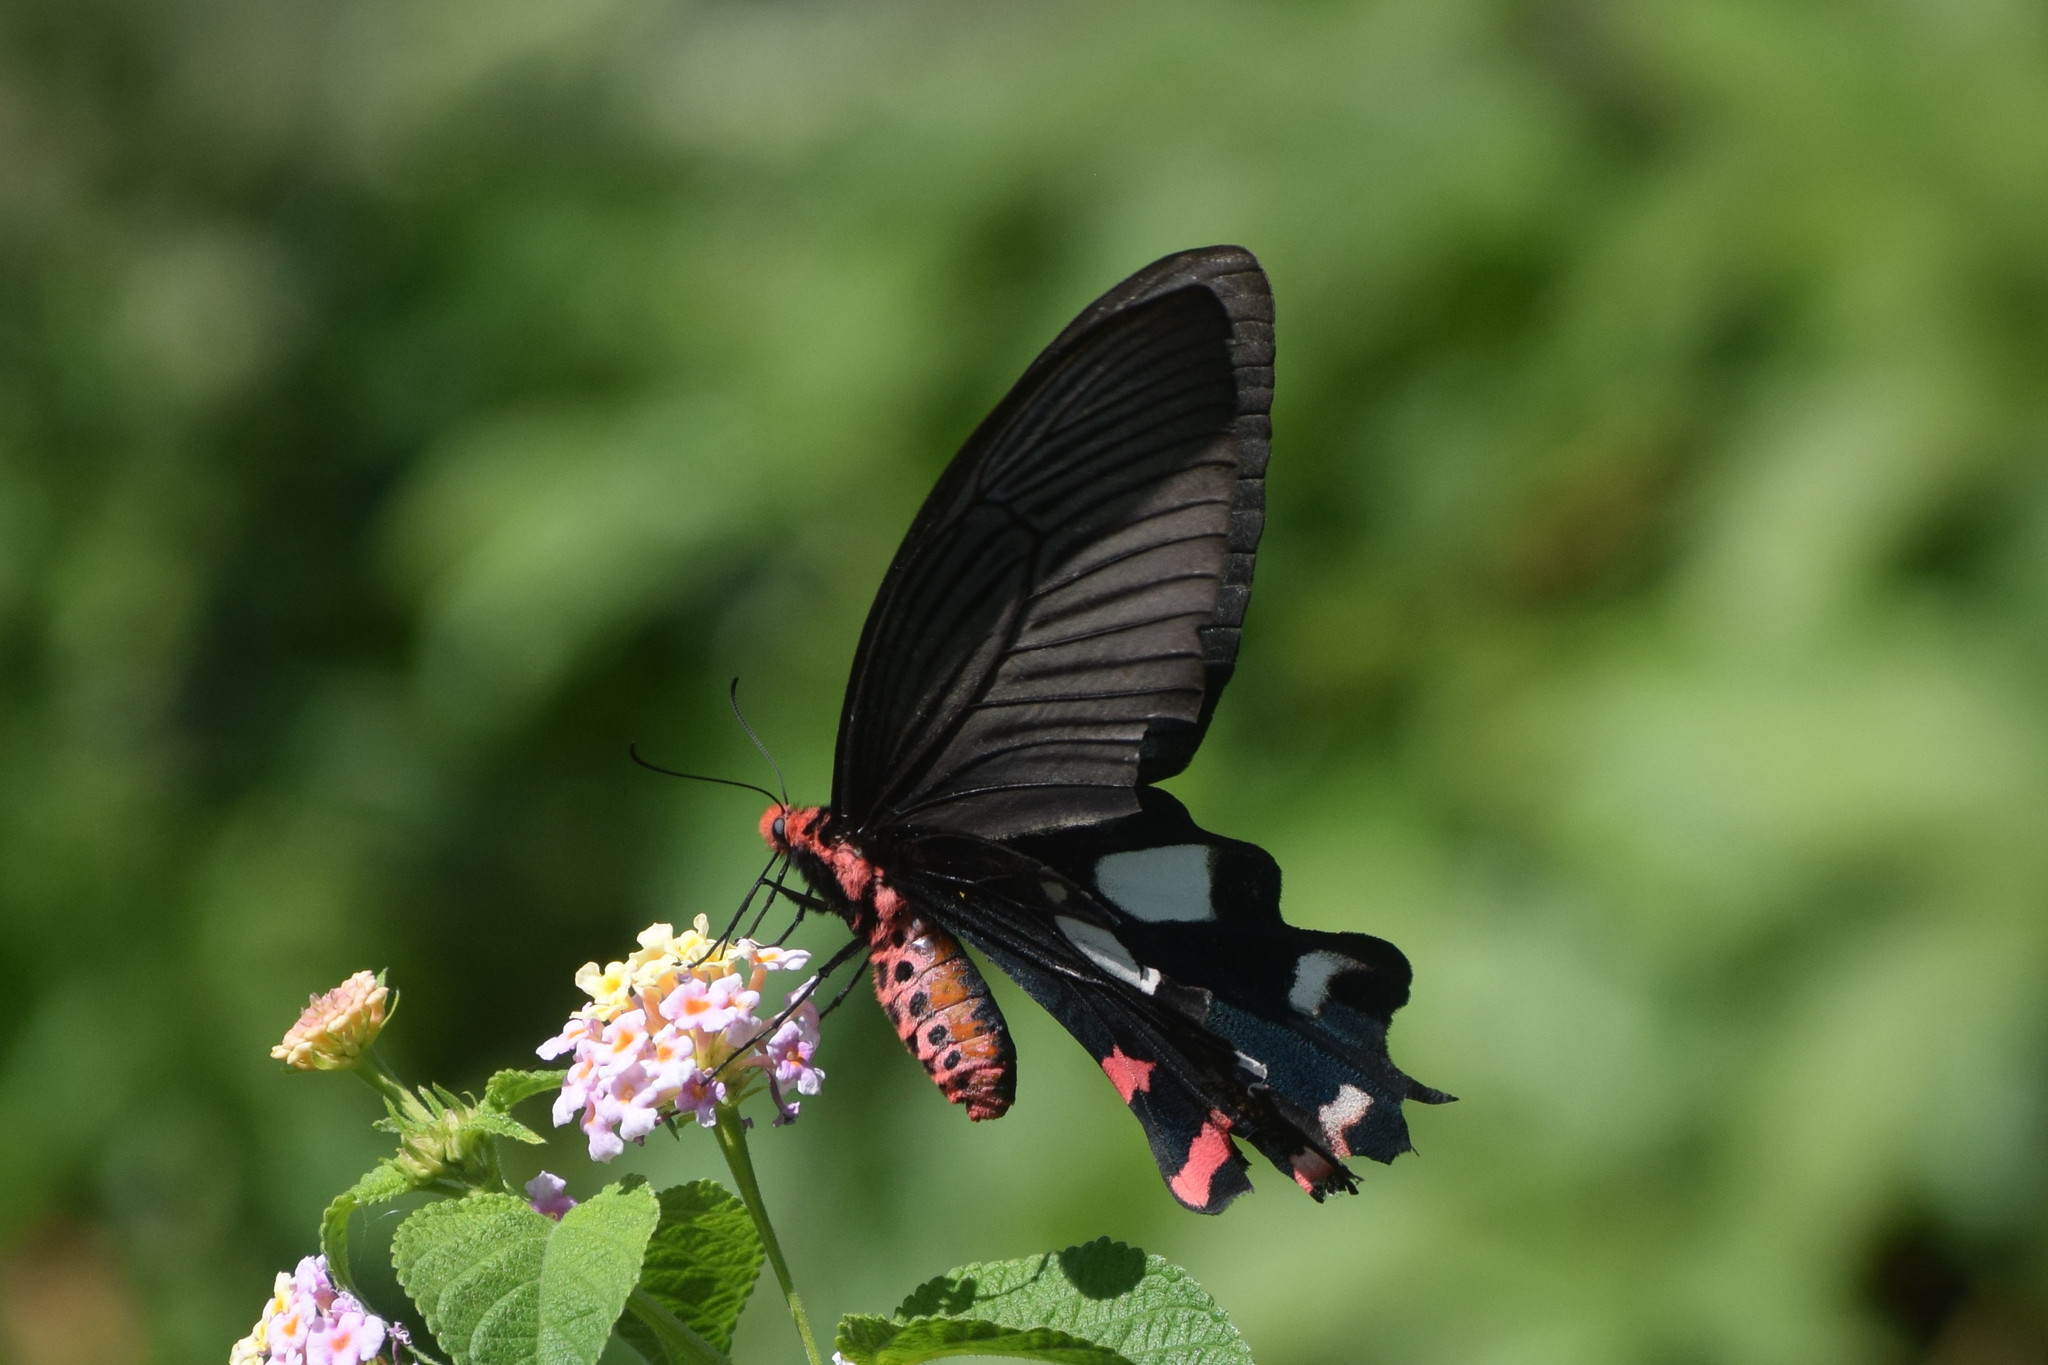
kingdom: Animalia
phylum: Arthropoda
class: Insecta
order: Lepidoptera
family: Papilionidae
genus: Byasa
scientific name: Byasa dasarada
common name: Great windmill
